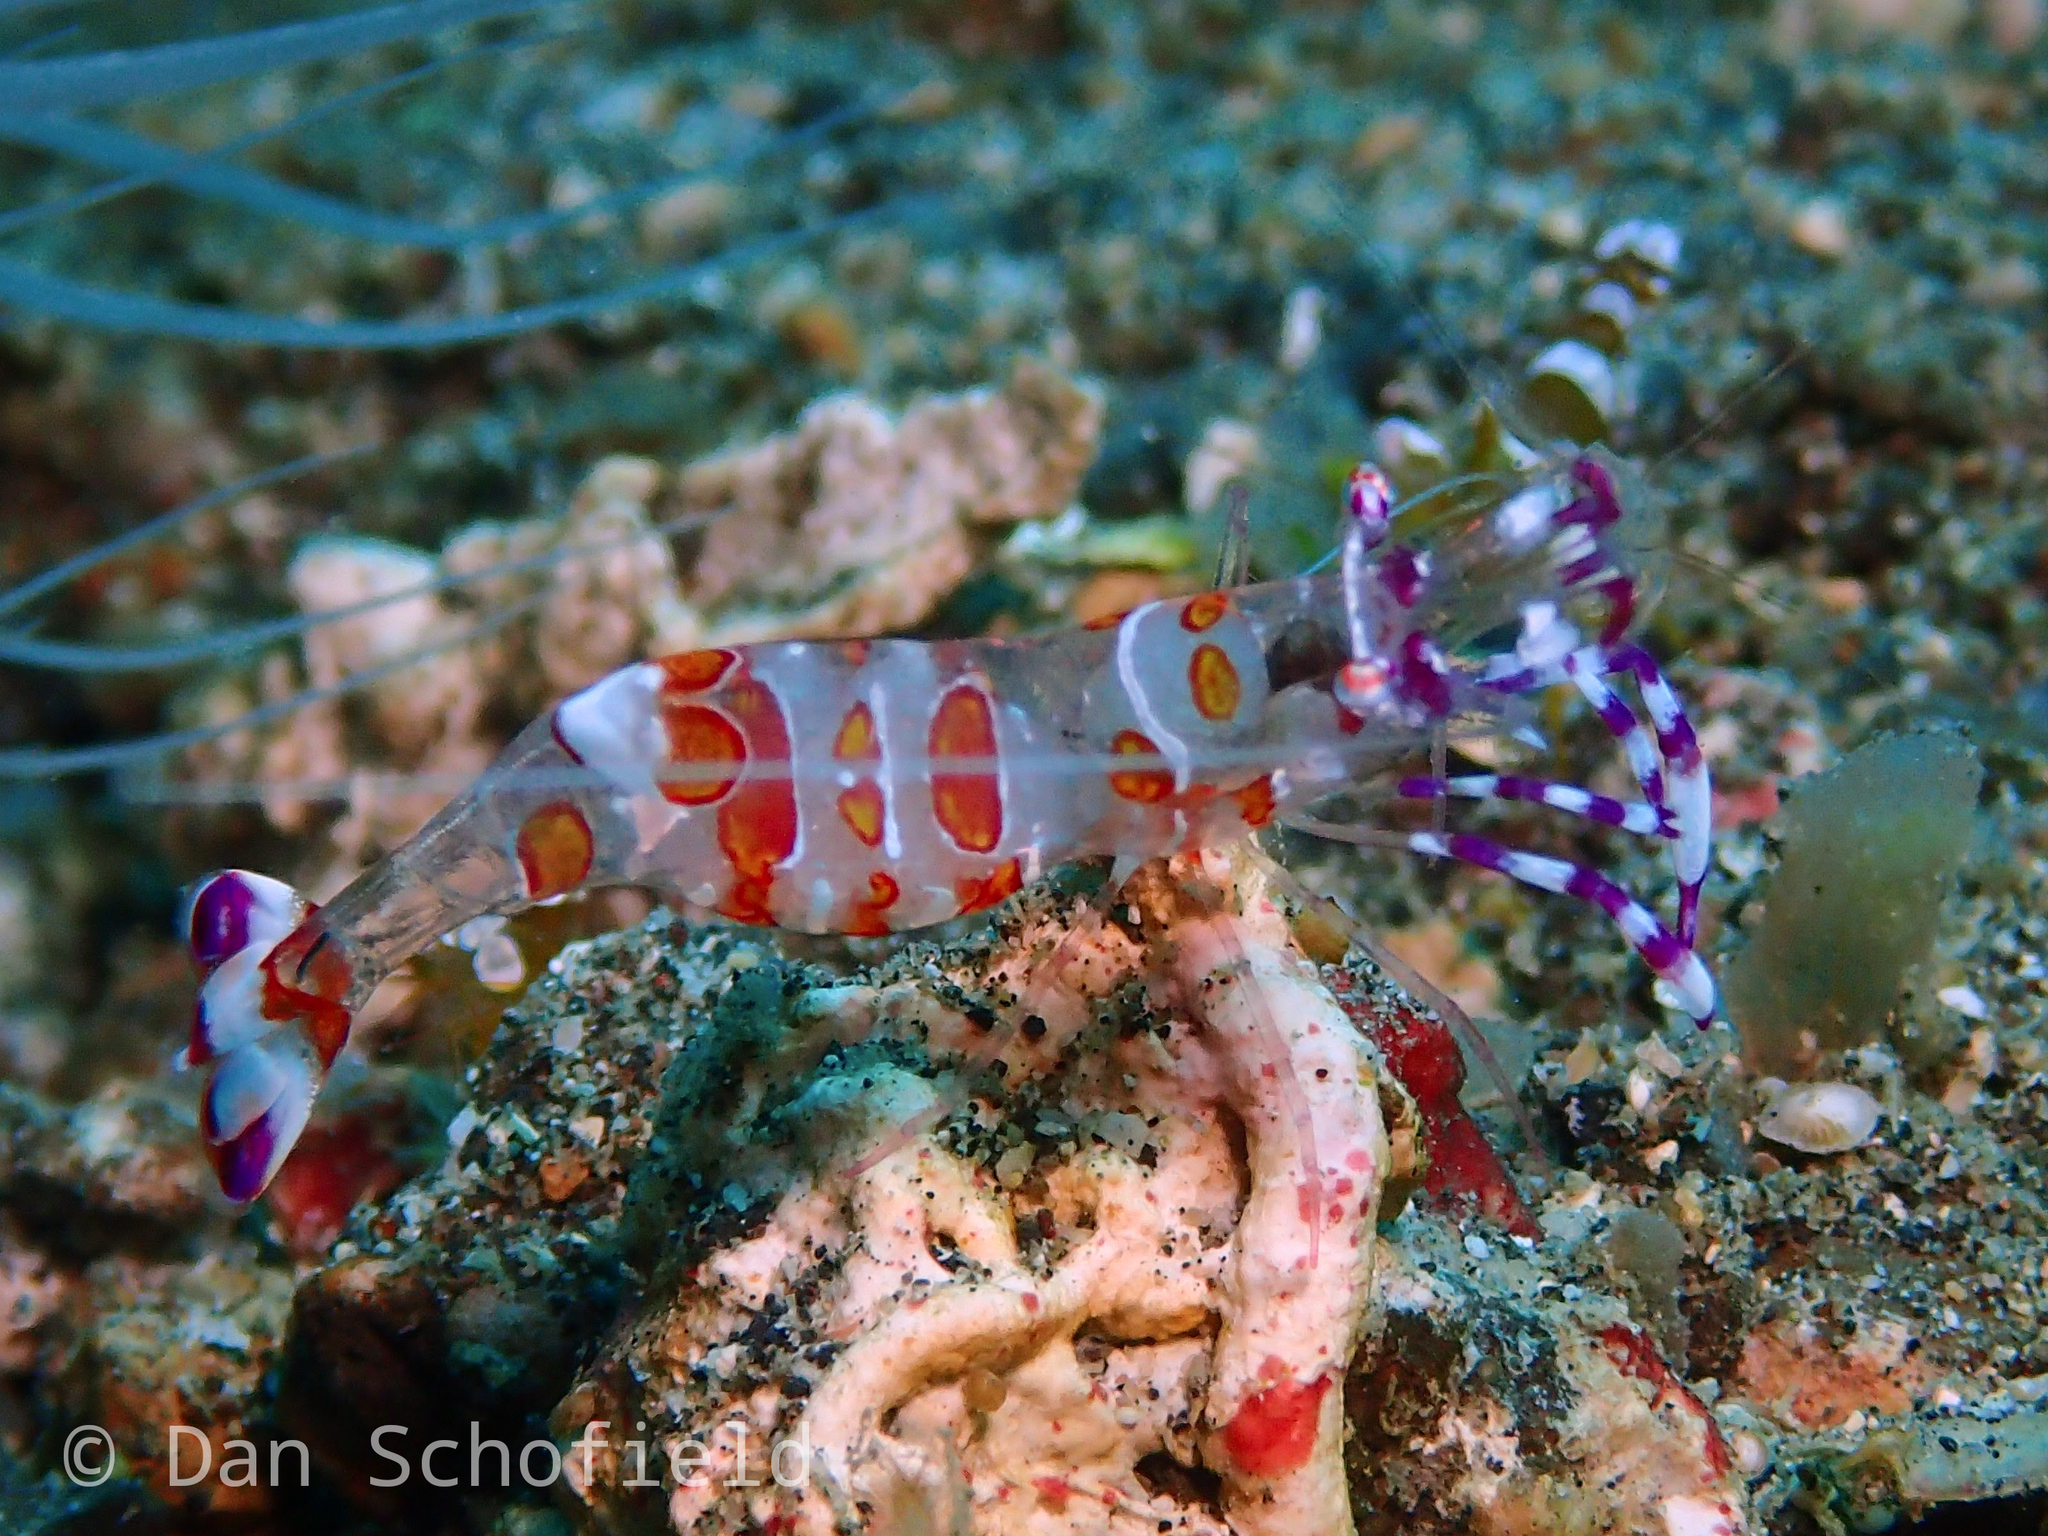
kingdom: Animalia
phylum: Arthropoda
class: Malacostraca
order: Decapoda
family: Palaemonidae
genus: Ancylomenes
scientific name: Ancylomenes luteomaculatus
